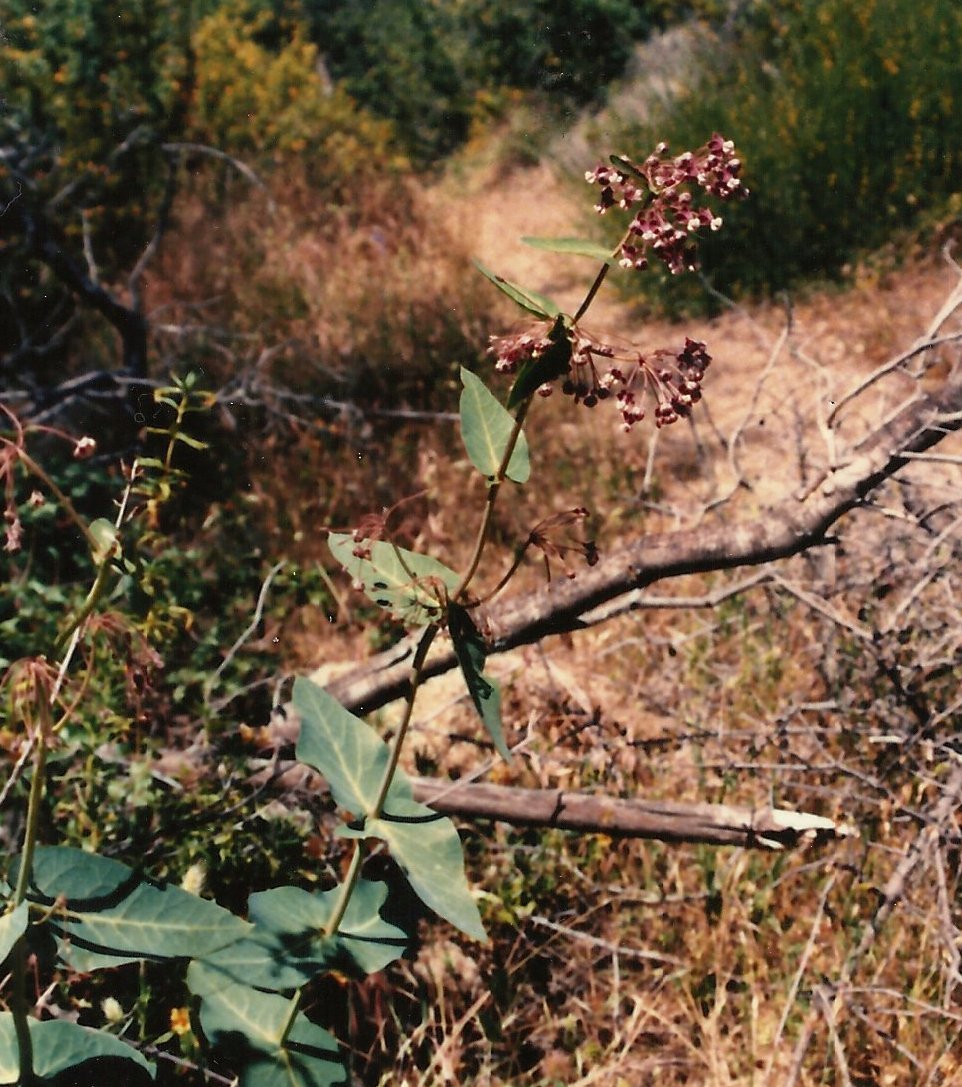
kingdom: Plantae
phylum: Tracheophyta
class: Magnoliopsida
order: Gentianales
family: Apocynaceae
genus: Asclepias
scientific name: Asclepias cordifolia
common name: Purple milkweed
